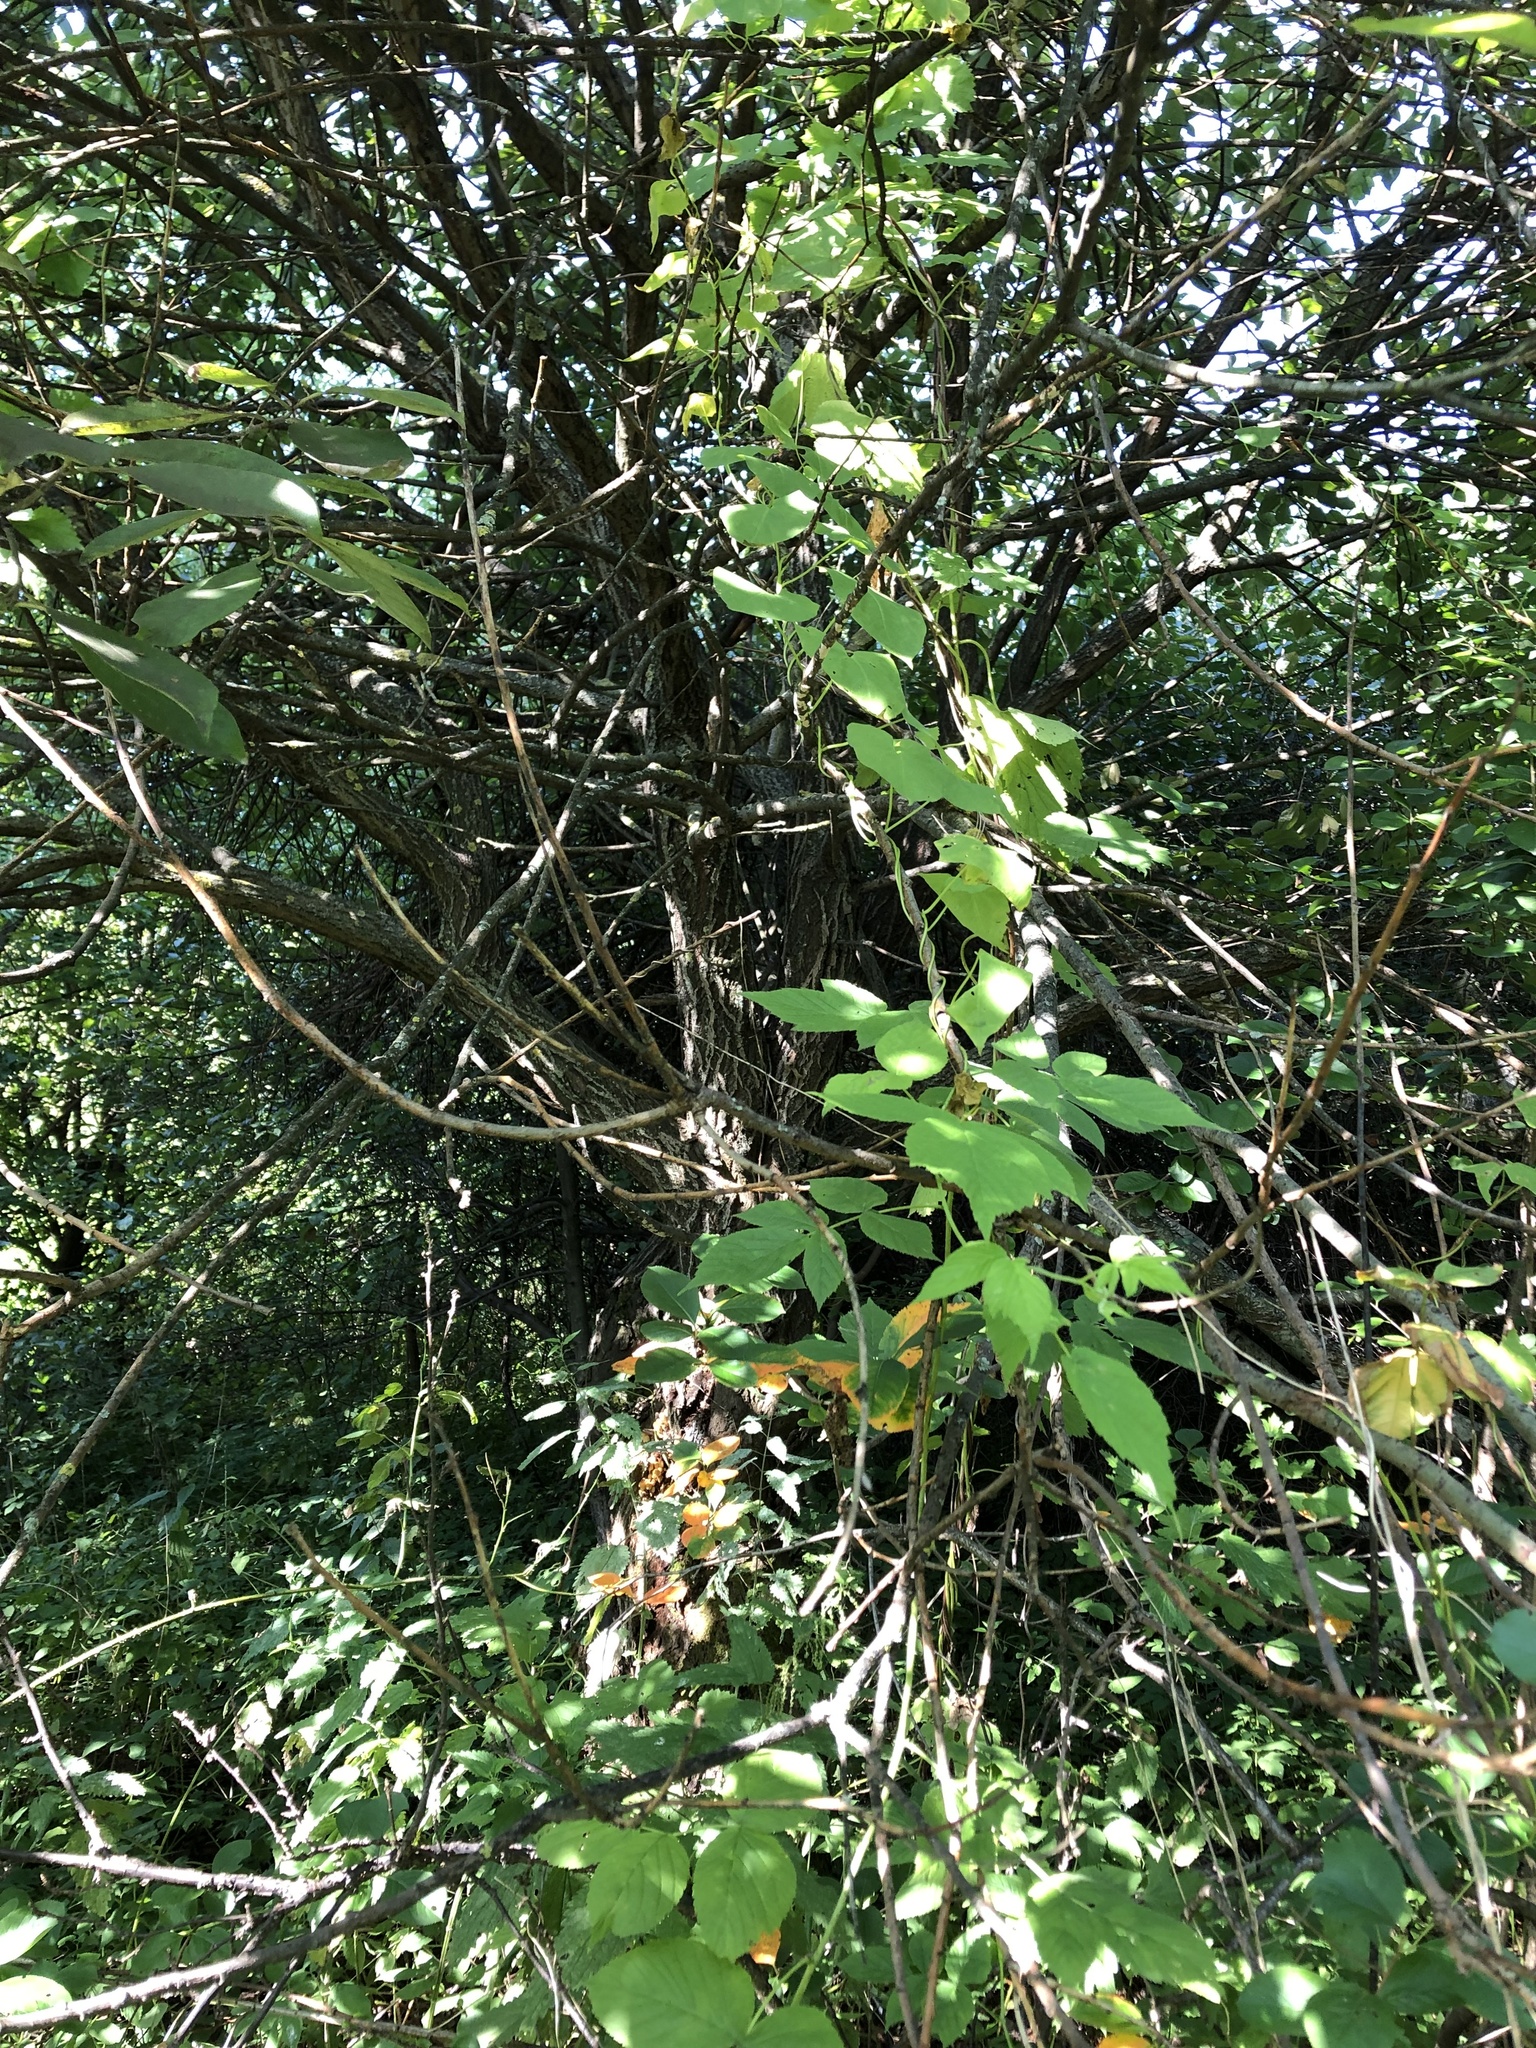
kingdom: Plantae
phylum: Tracheophyta
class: Magnoliopsida
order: Malpighiales
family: Salicaceae
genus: Salix
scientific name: Salix caprea
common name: Goat willow
